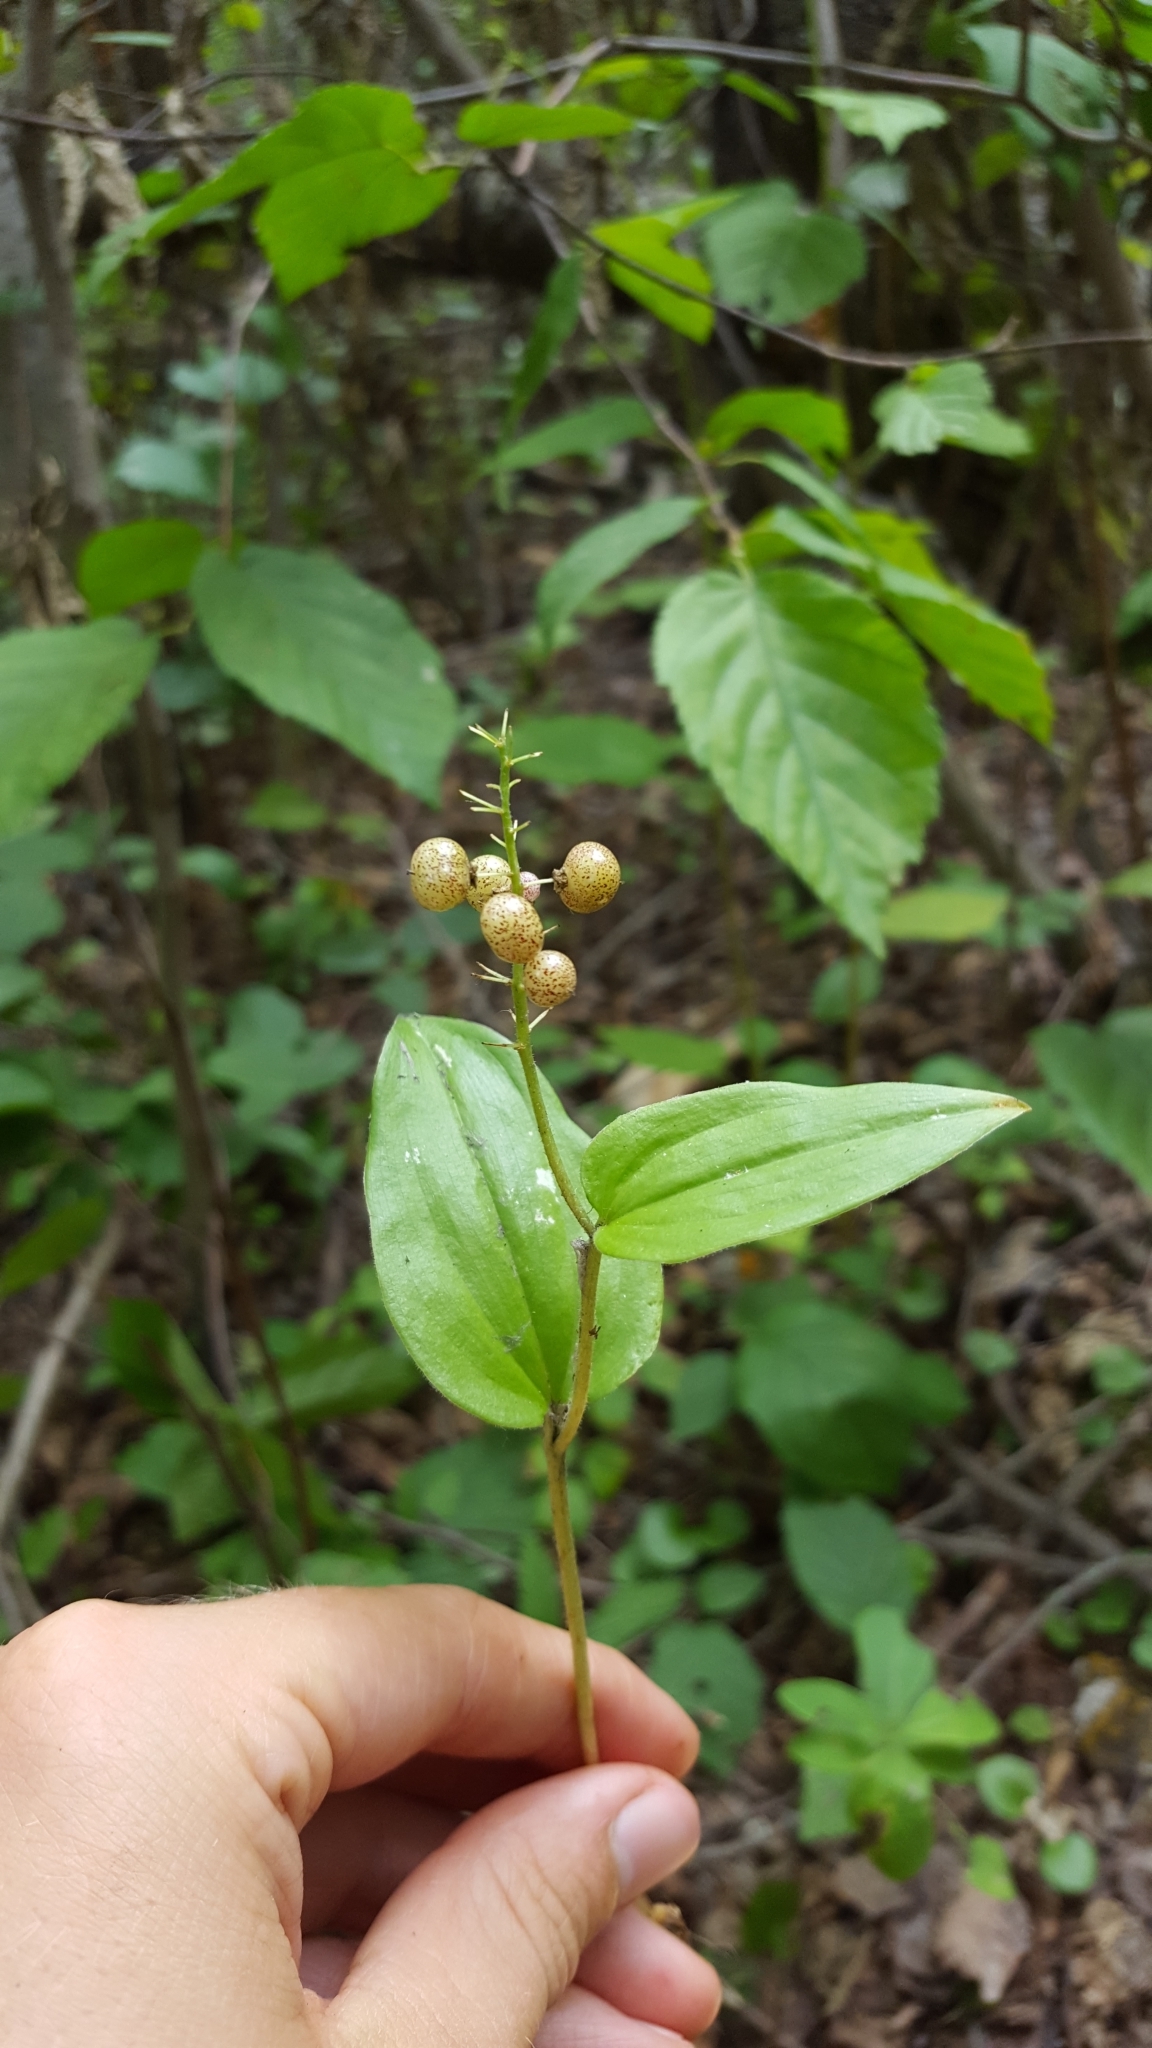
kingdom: Plantae
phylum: Tracheophyta
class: Liliopsida
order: Asparagales
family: Asparagaceae
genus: Maianthemum
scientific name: Maianthemum canadense
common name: False lily-of-the-valley
